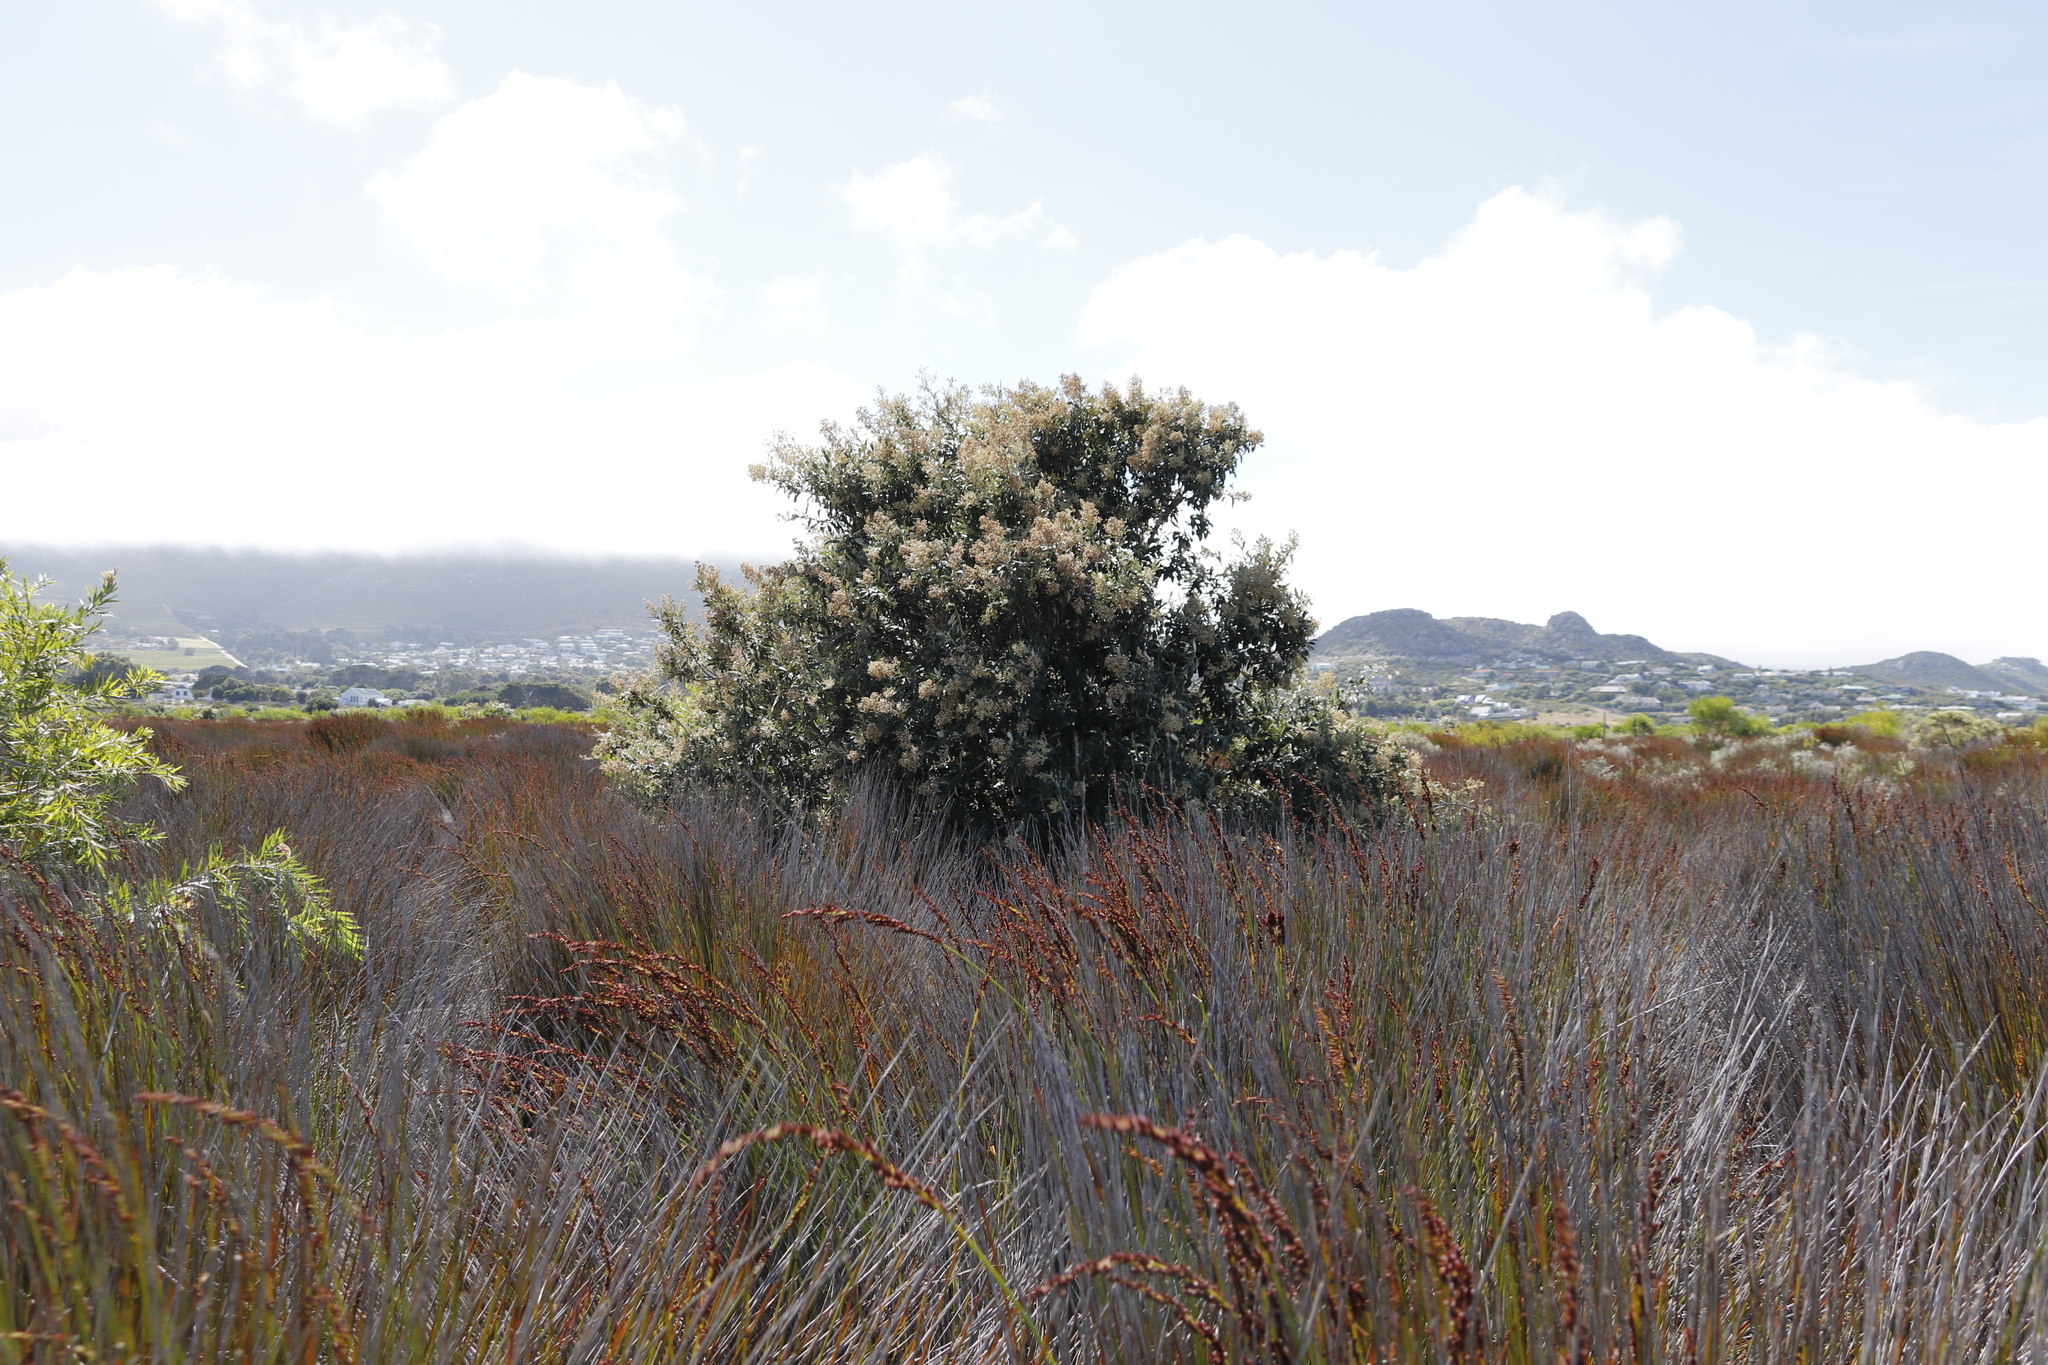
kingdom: Plantae
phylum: Tracheophyta
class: Liliopsida
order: Poales
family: Restionaceae
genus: Elegia
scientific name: Elegia tectorum
